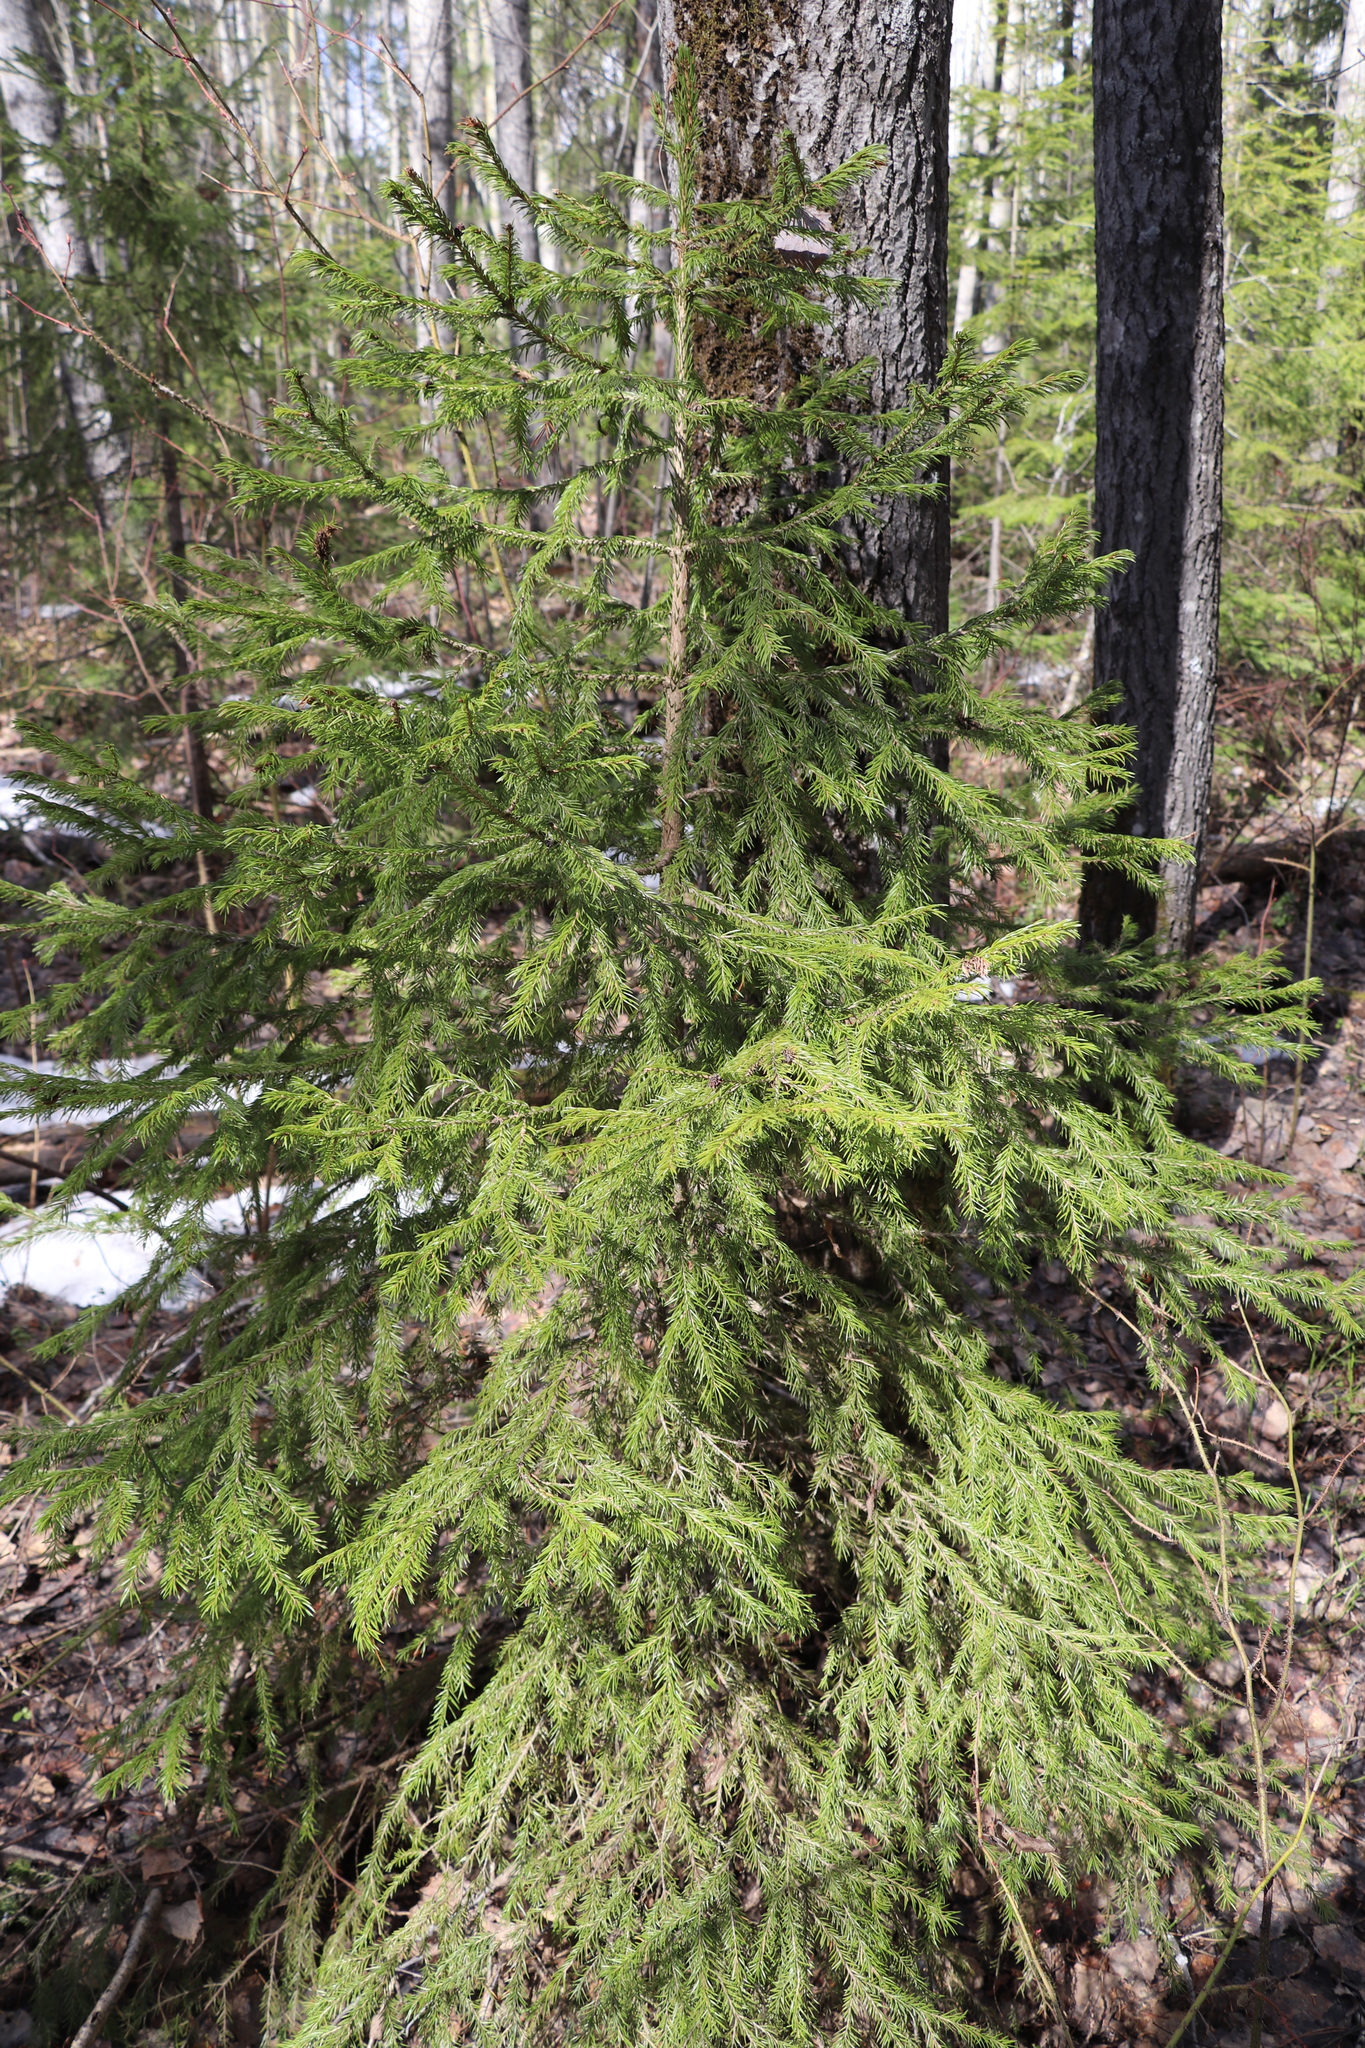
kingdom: Plantae
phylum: Tracheophyta
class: Pinopsida
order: Pinales
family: Pinaceae
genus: Picea
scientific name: Picea obovata
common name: Siberian spruce
